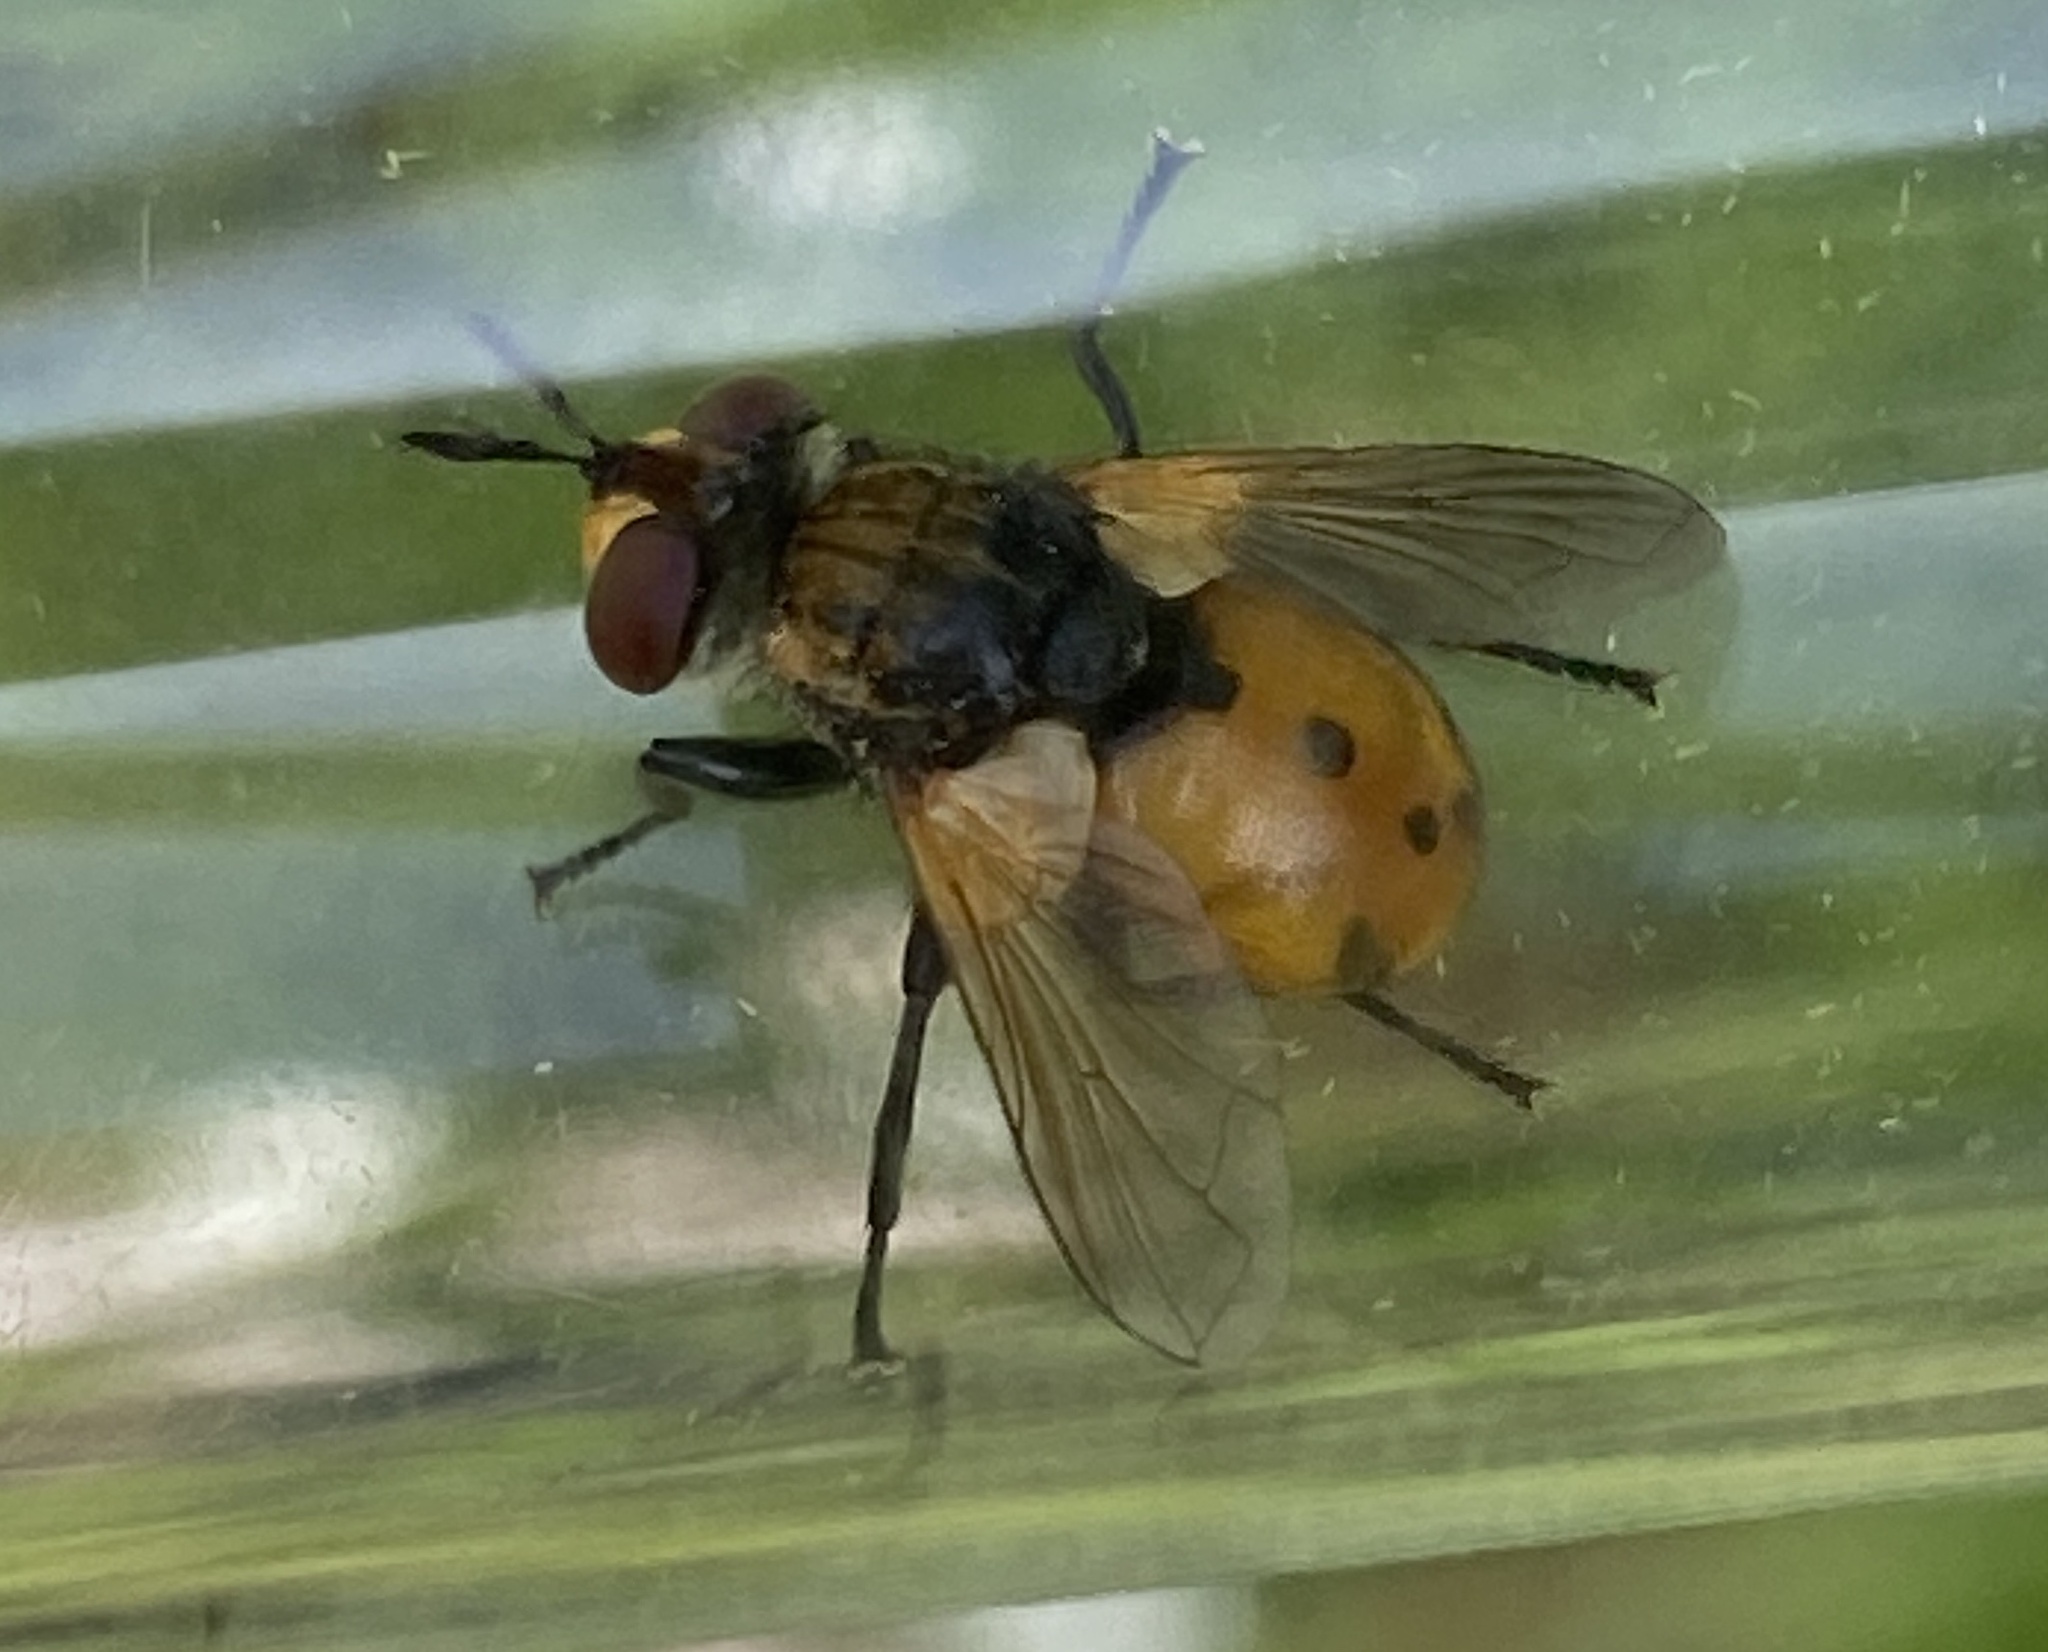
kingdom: Animalia
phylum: Arthropoda
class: Insecta
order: Diptera
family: Tachinidae
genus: Gymnosoma
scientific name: Gymnosoma rotundatum
